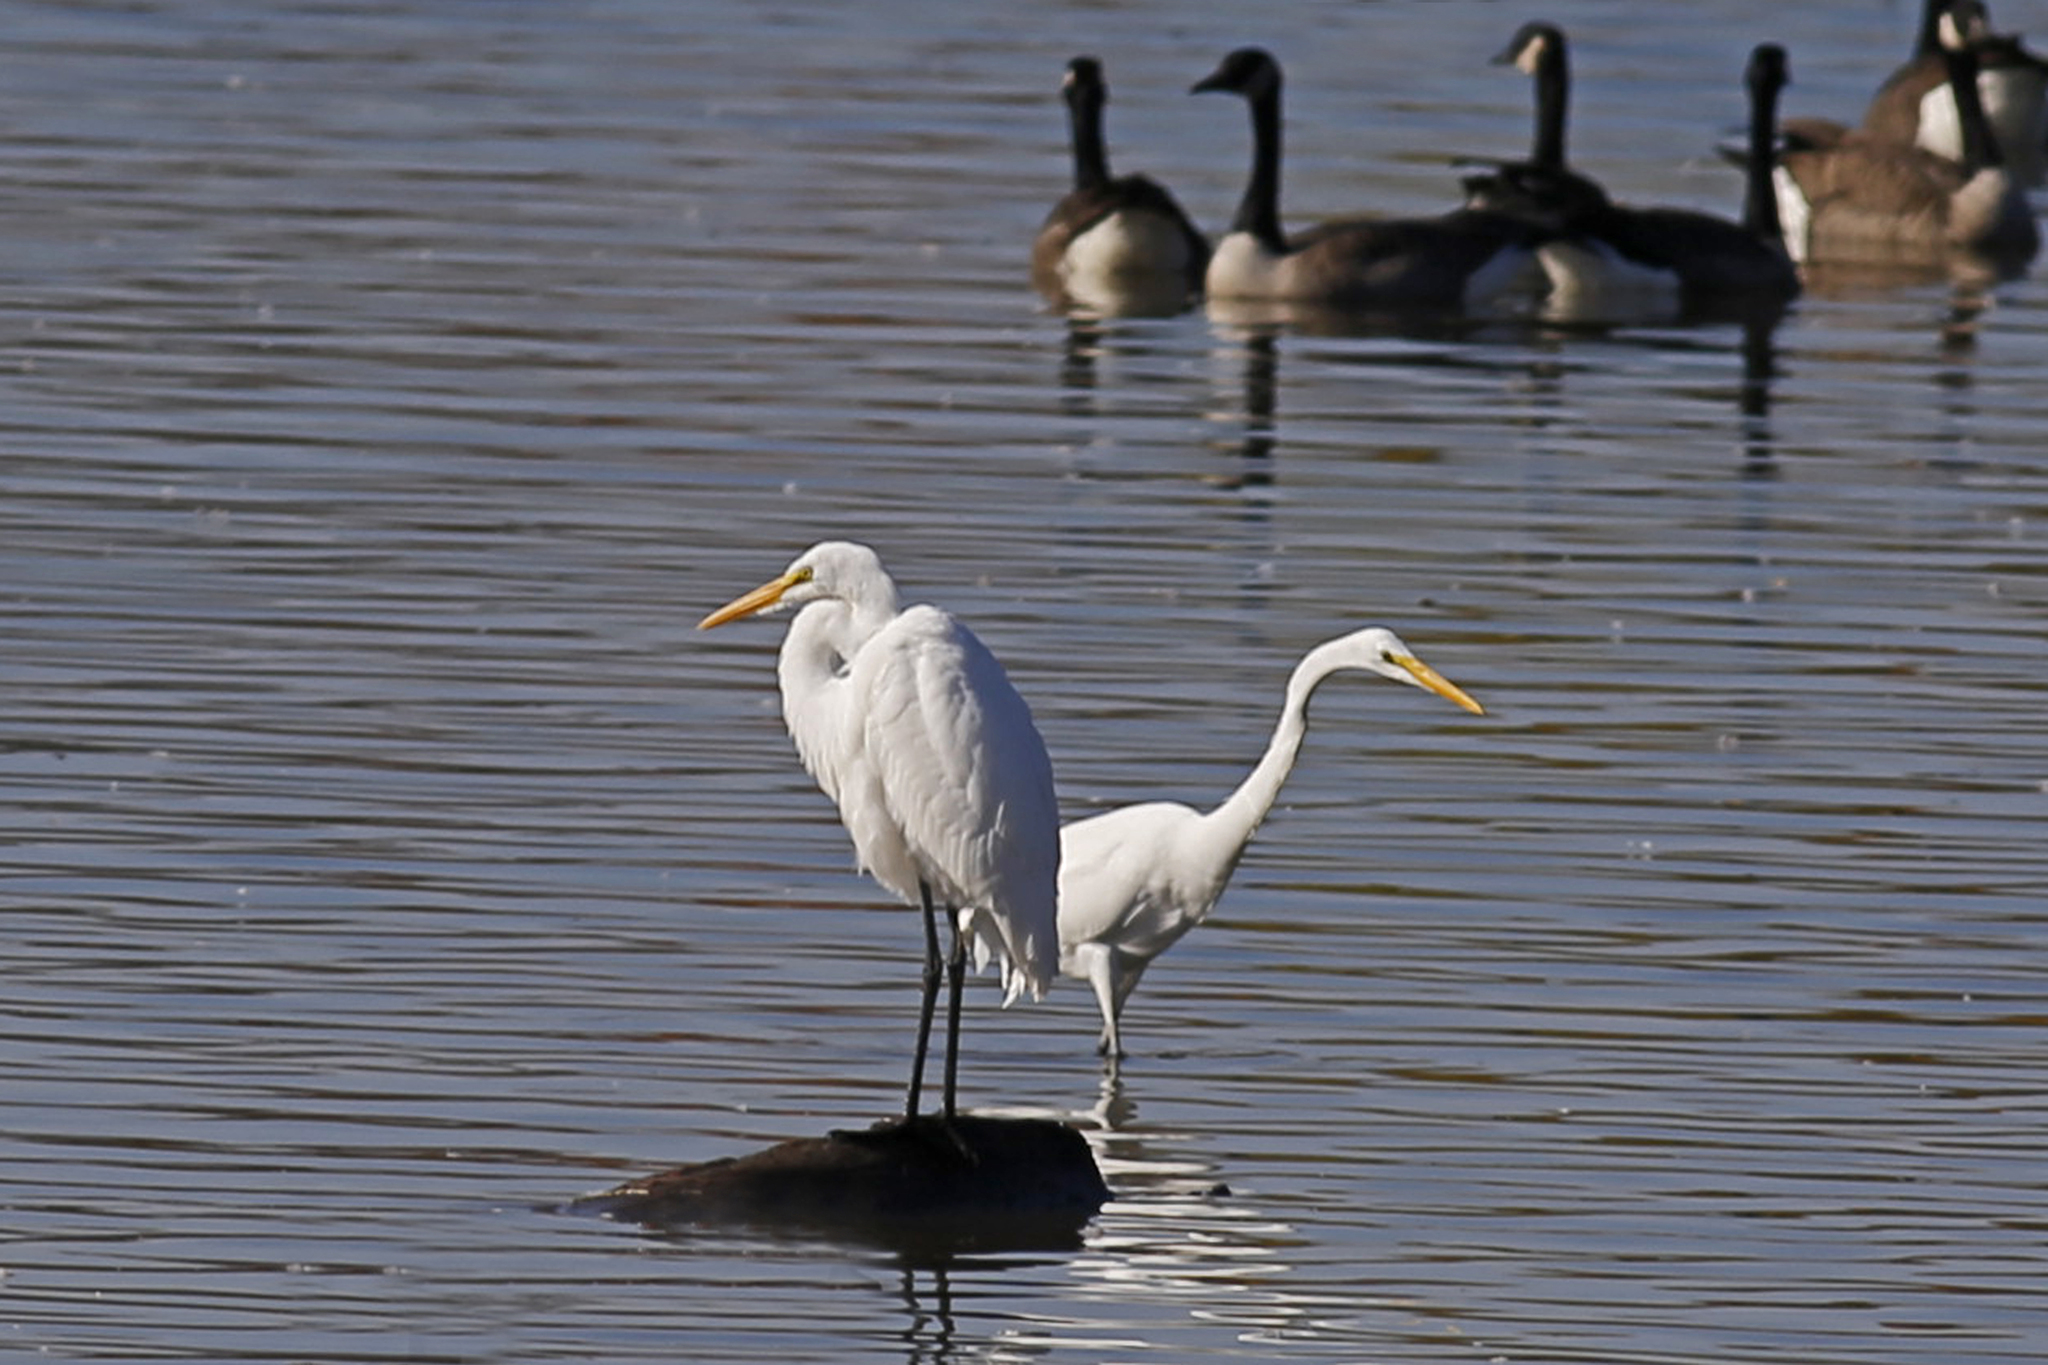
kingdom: Animalia
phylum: Chordata
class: Aves
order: Pelecaniformes
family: Ardeidae
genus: Ardea
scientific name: Ardea alba
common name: Great egret
